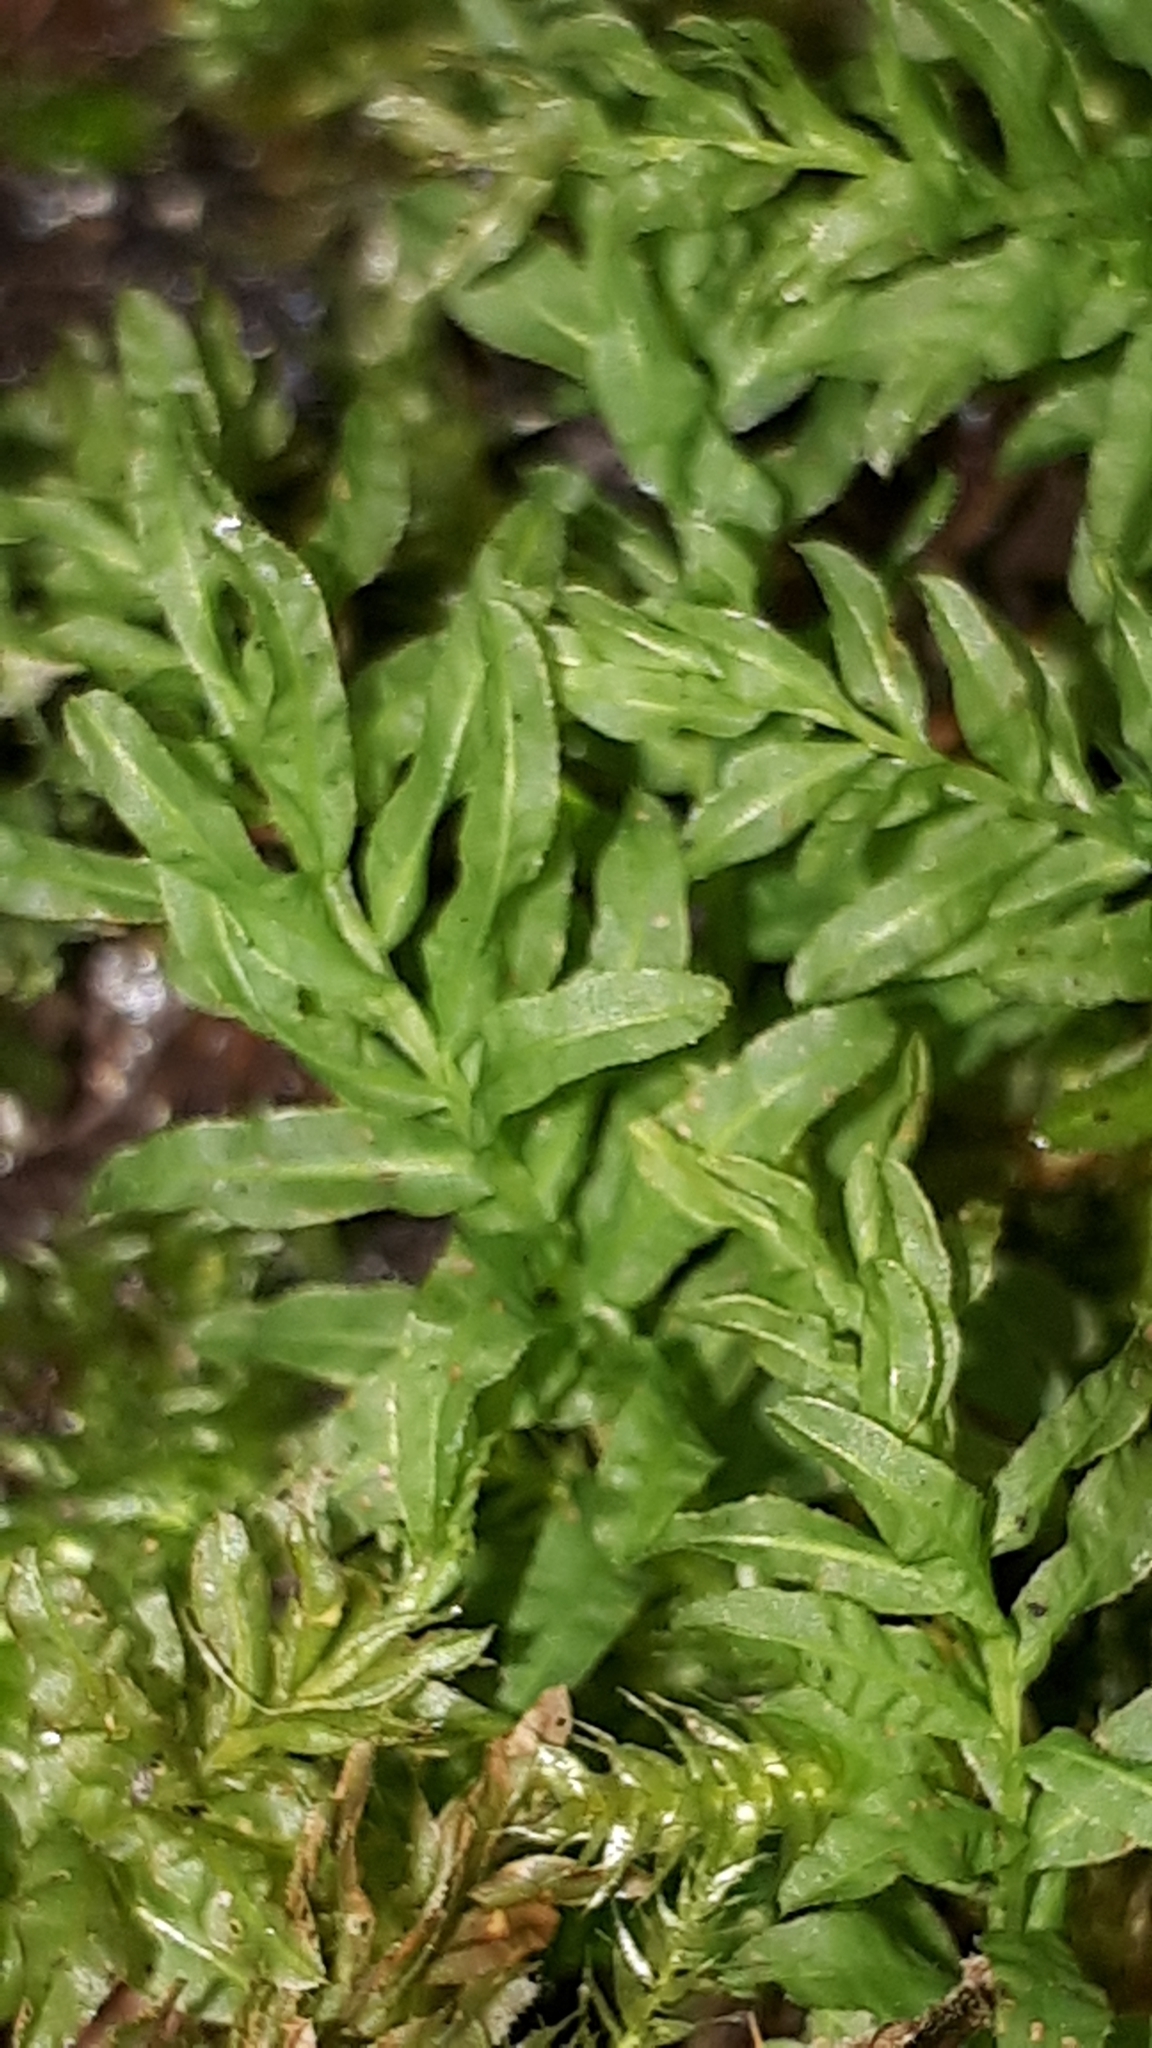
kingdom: Plantae
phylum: Bryophyta
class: Bryopsida
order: Bryales
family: Mniaceae
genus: Plagiomnium
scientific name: Plagiomnium undulatum
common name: Hart's-tongue thyme-moss
